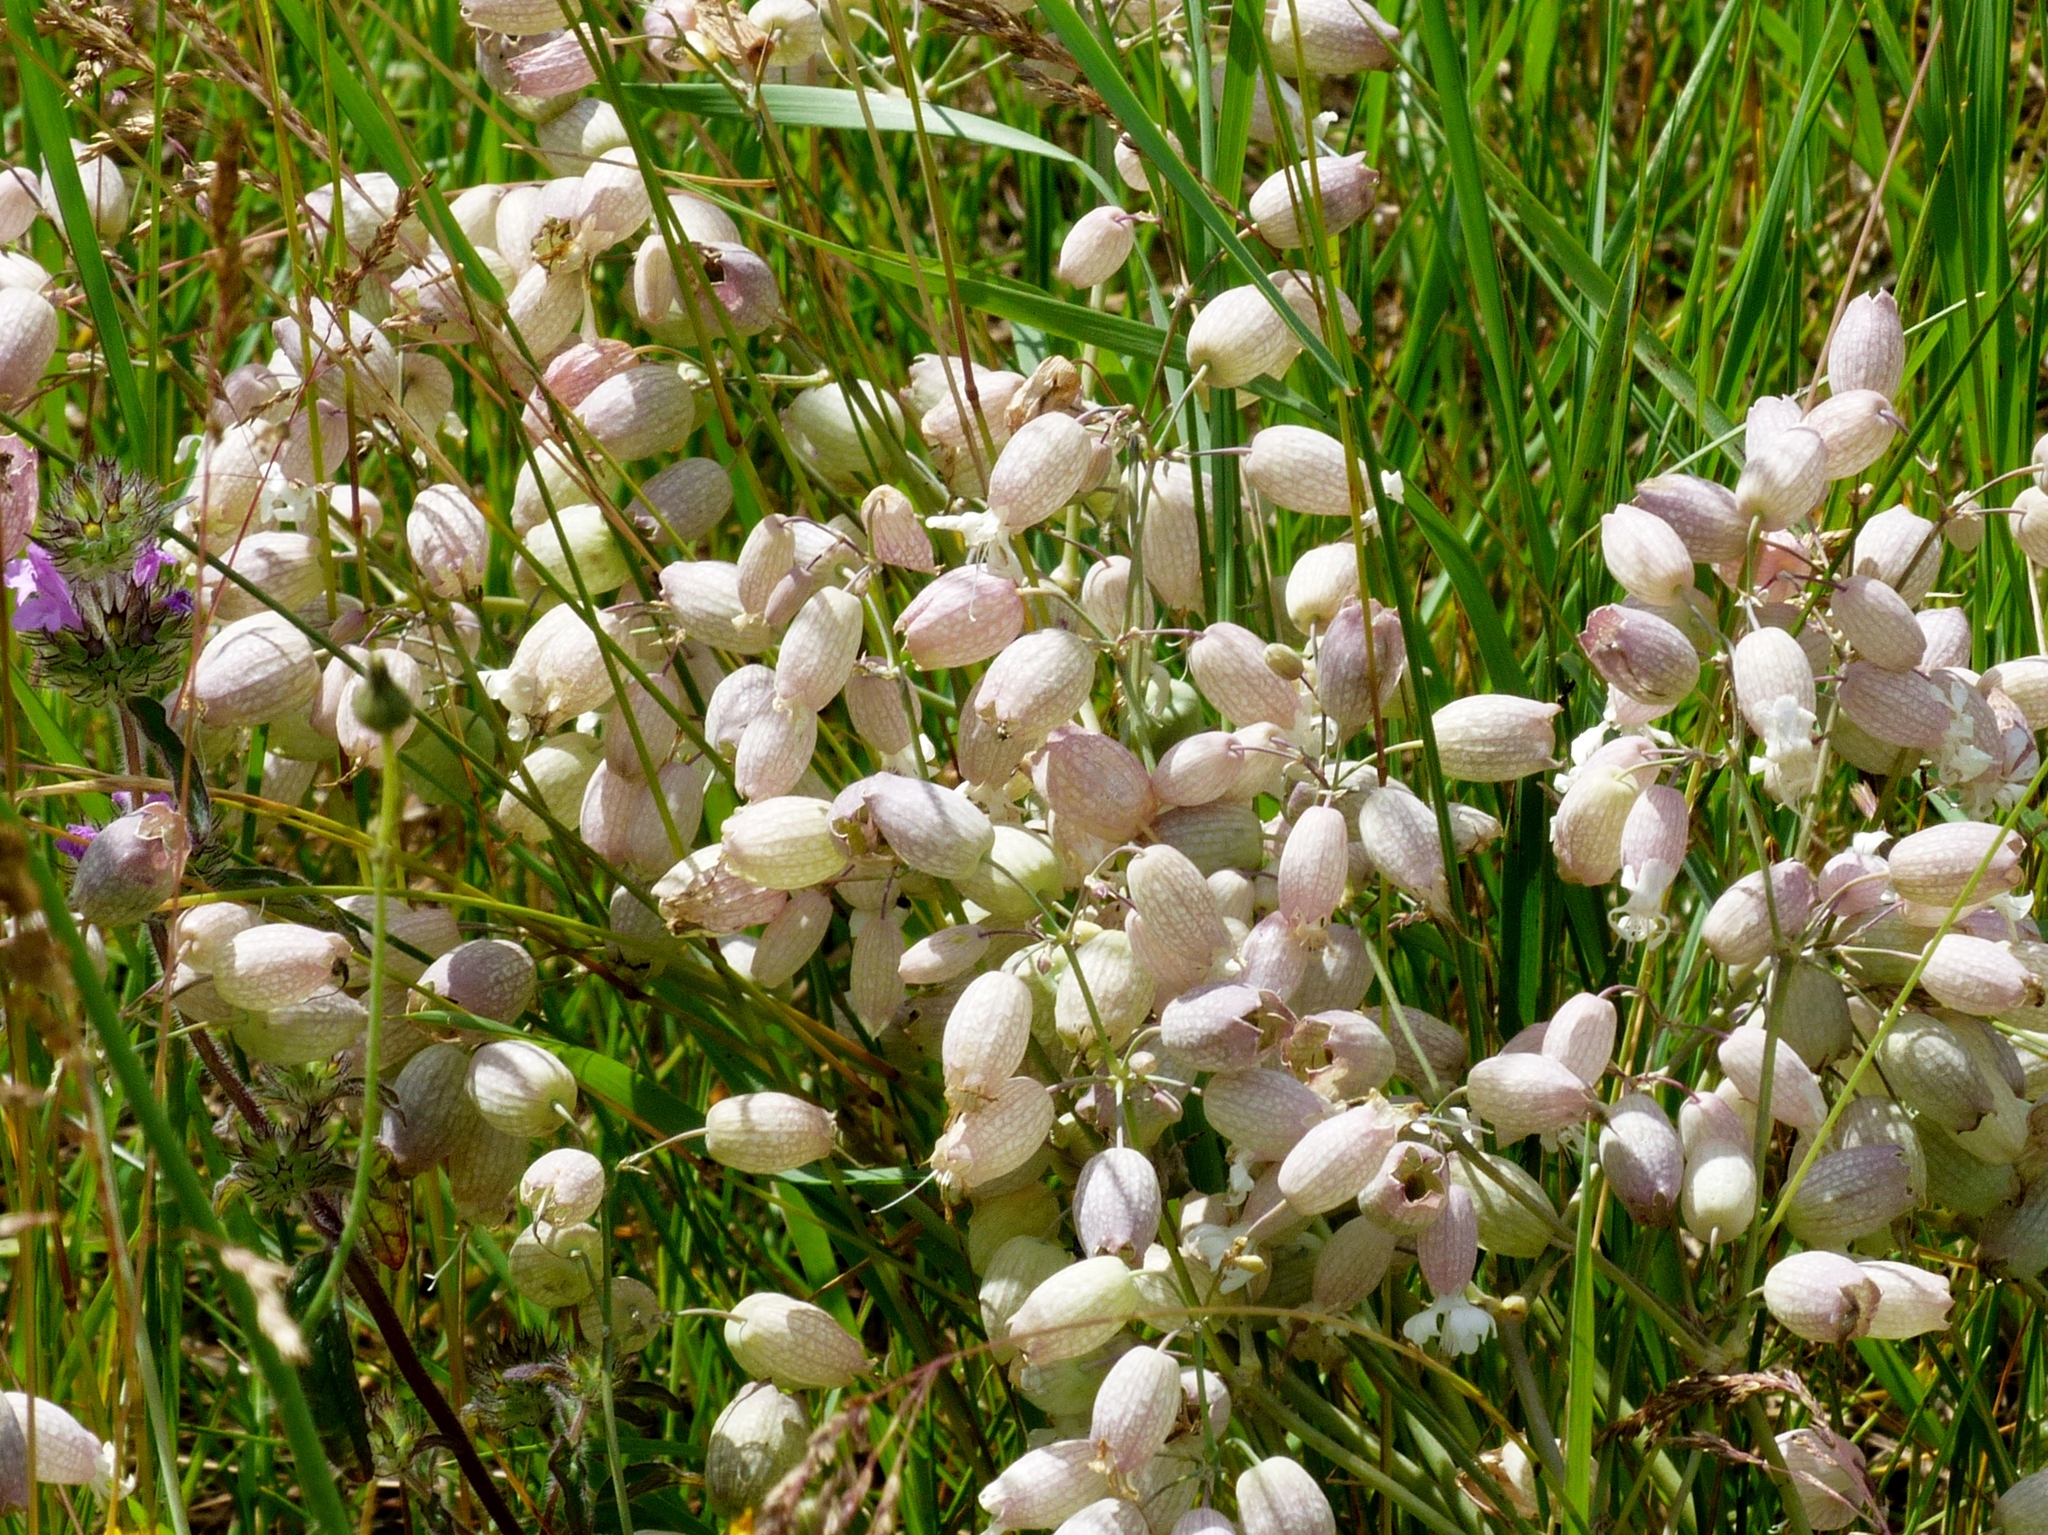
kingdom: Plantae
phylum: Tracheophyta
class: Magnoliopsida
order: Caryophyllales
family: Caryophyllaceae
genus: Silene
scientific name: Silene vulgaris
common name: Bladder campion
